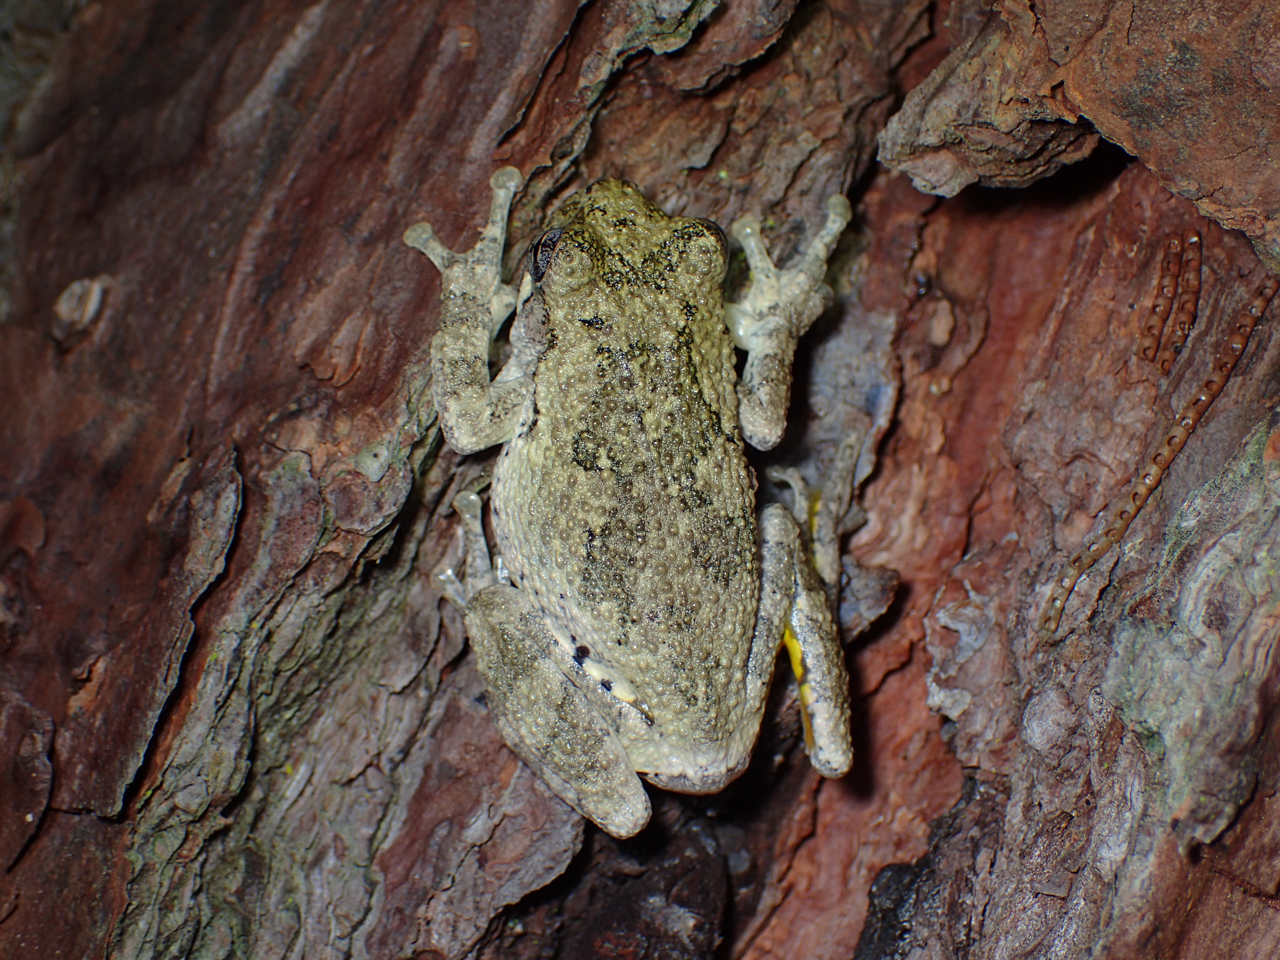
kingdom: Animalia
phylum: Chordata
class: Amphibia
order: Anura
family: Hylidae
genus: Dryophytes
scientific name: Dryophytes chrysoscelis
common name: Cope's gray treefrog
